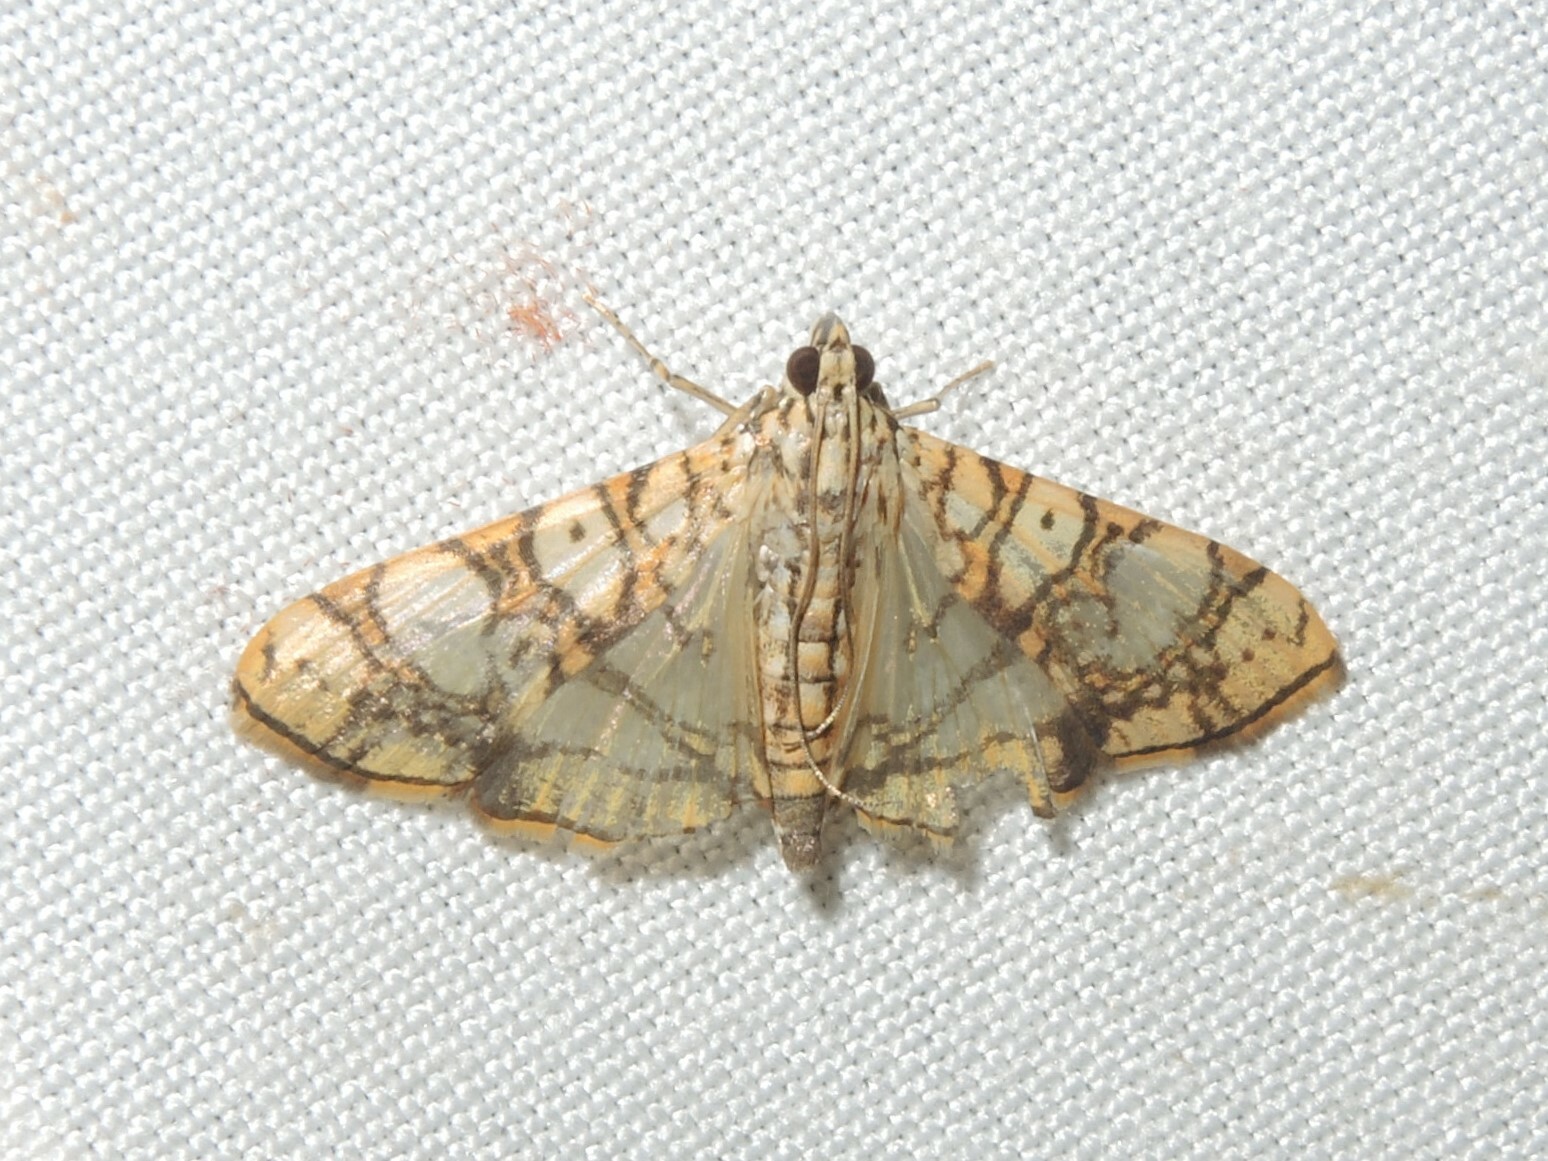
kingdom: Animalia
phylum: Arthropoda
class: Insecta
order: Lepidoptera
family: Crambidae
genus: Glyphodes
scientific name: Glyphodes caesalis
